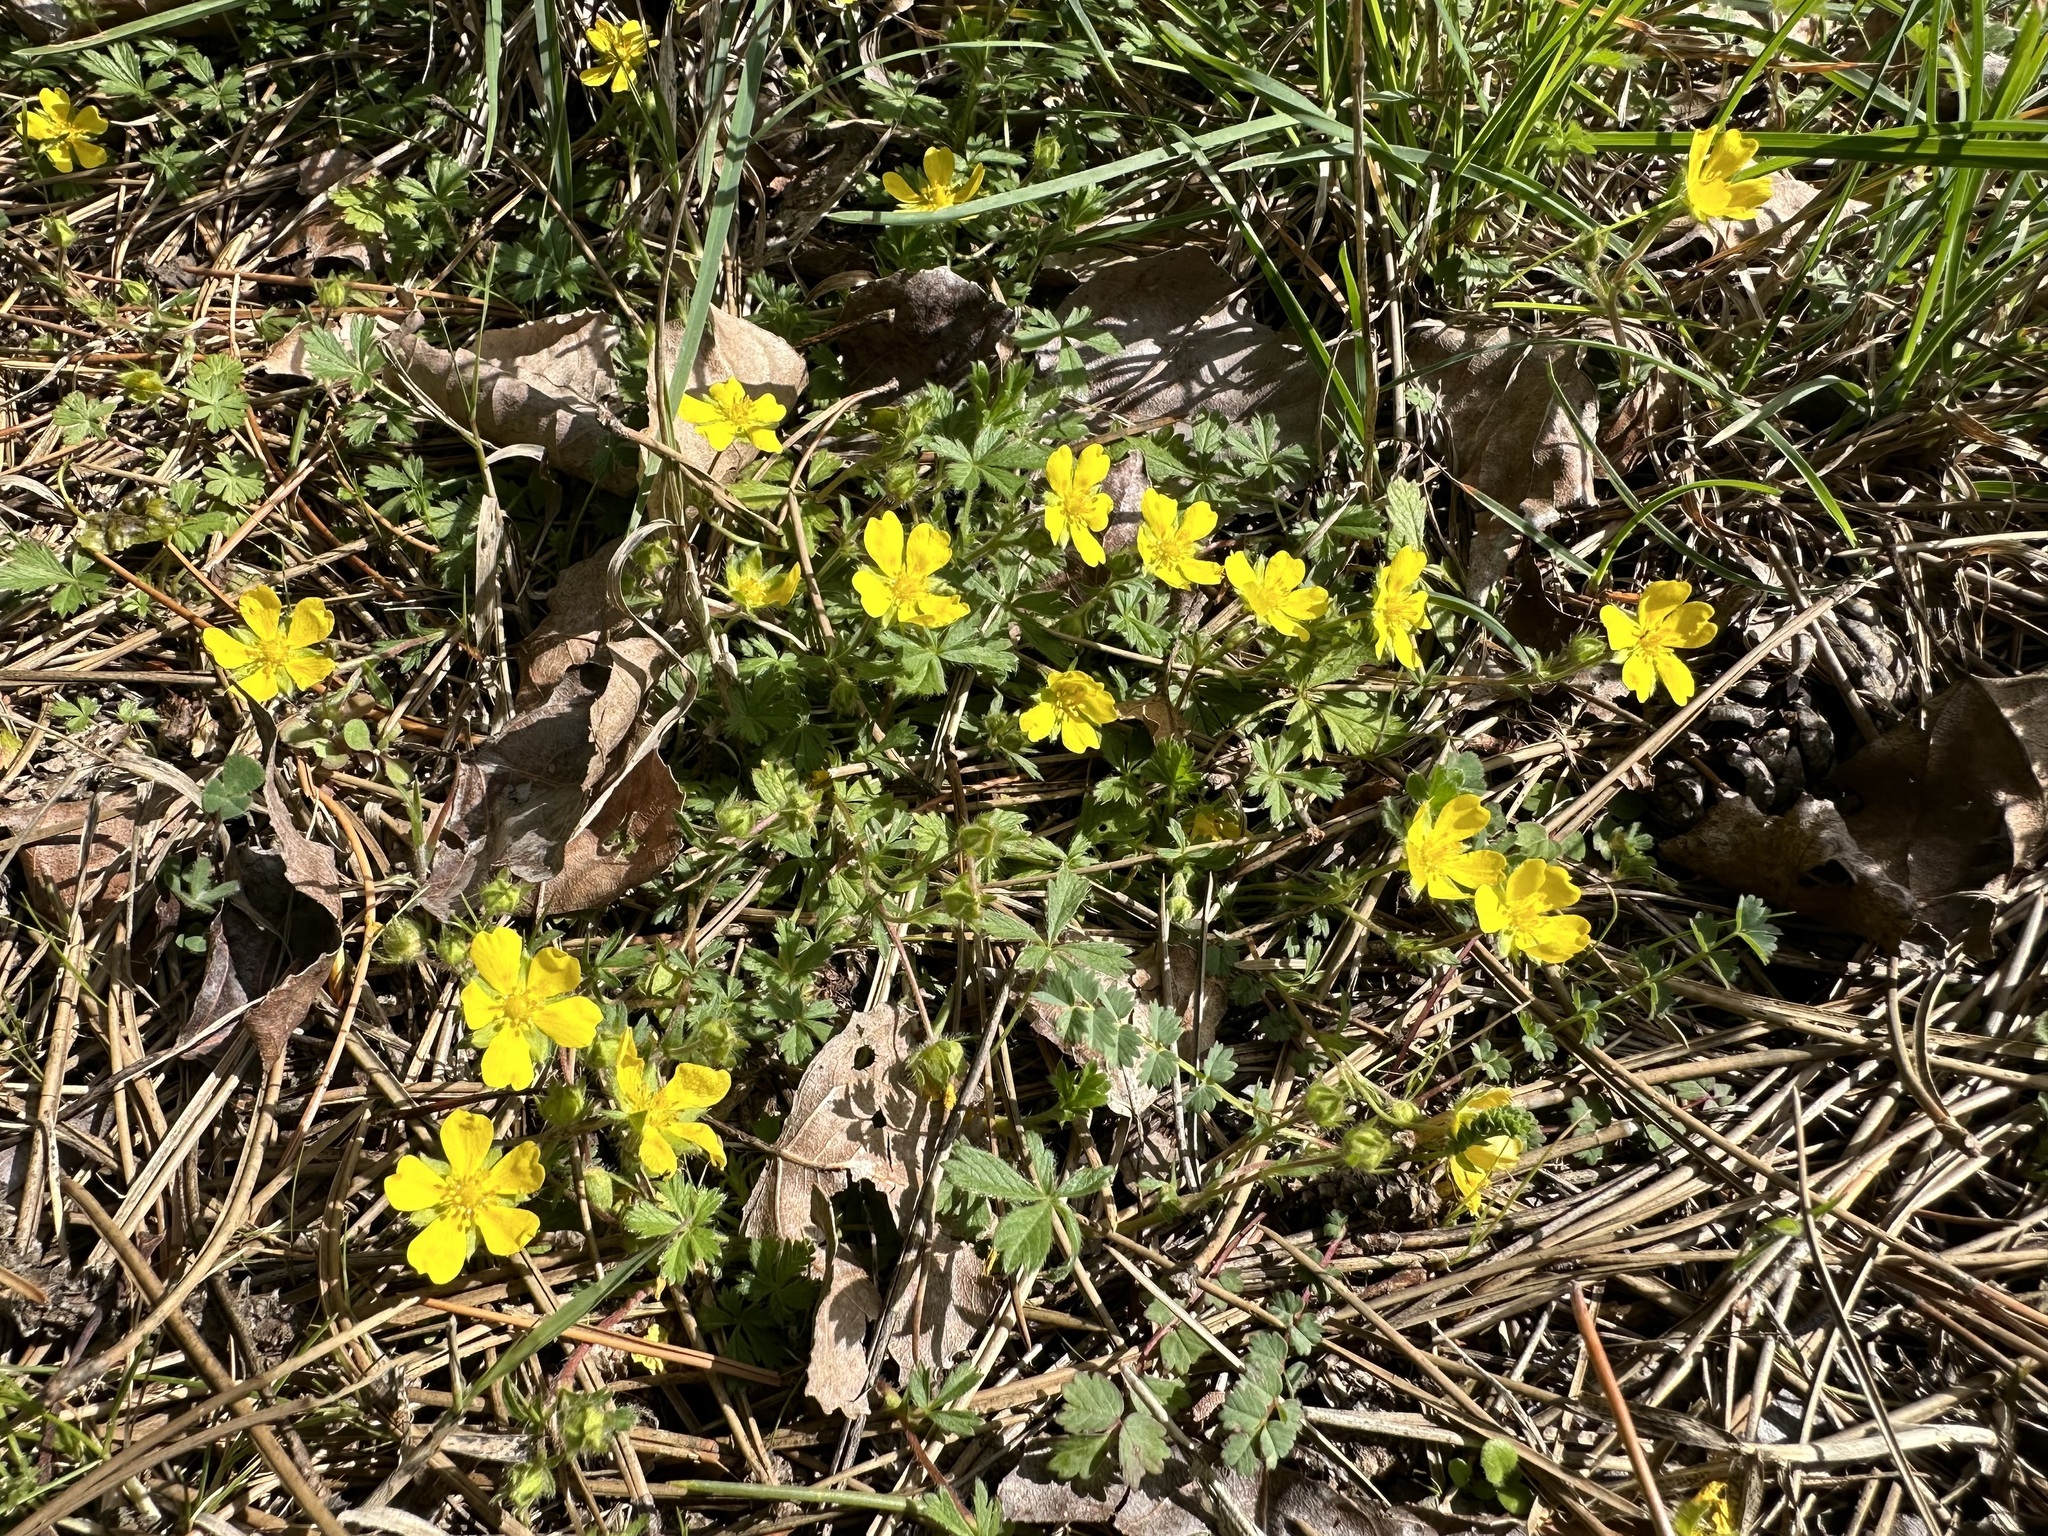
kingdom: Plantae
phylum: Tracheophyta
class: Magnoliopsida
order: Rosales
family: Rosaceae
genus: Potentilla
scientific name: Potentilla verna
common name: Spring cinquefoil
